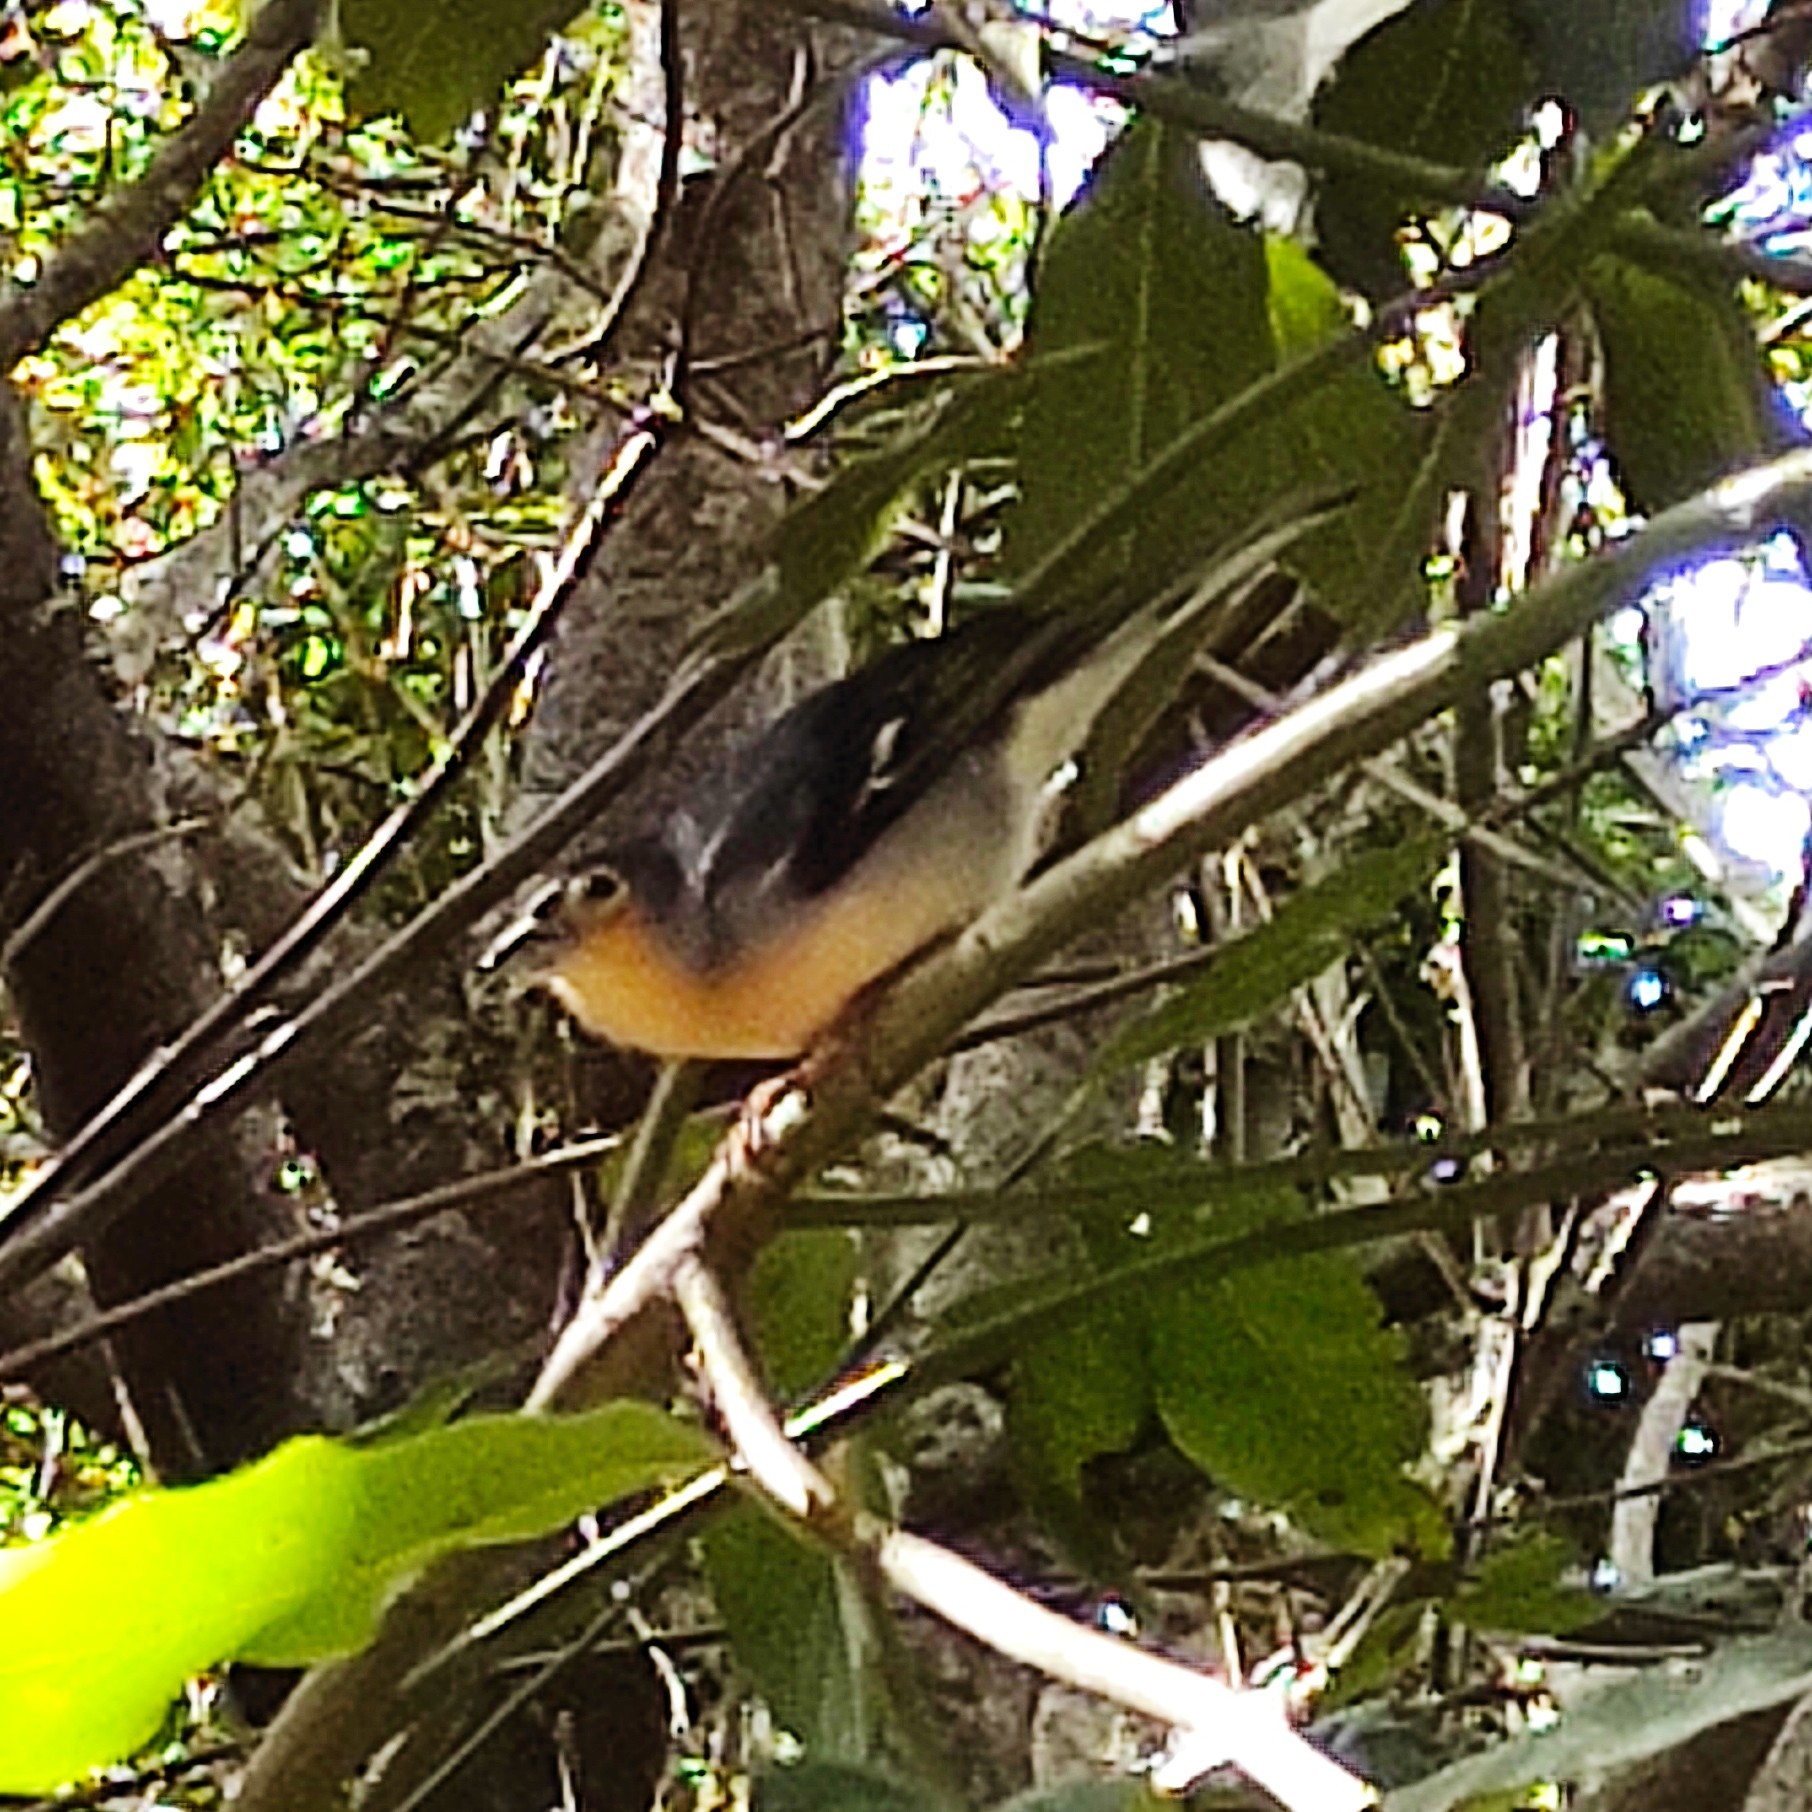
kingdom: Animalia
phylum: Chordata
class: Aves
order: Passeriformes
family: Fringillidae
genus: Fringilla
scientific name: Fringilla canariensis
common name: Canary islands chaffinch
